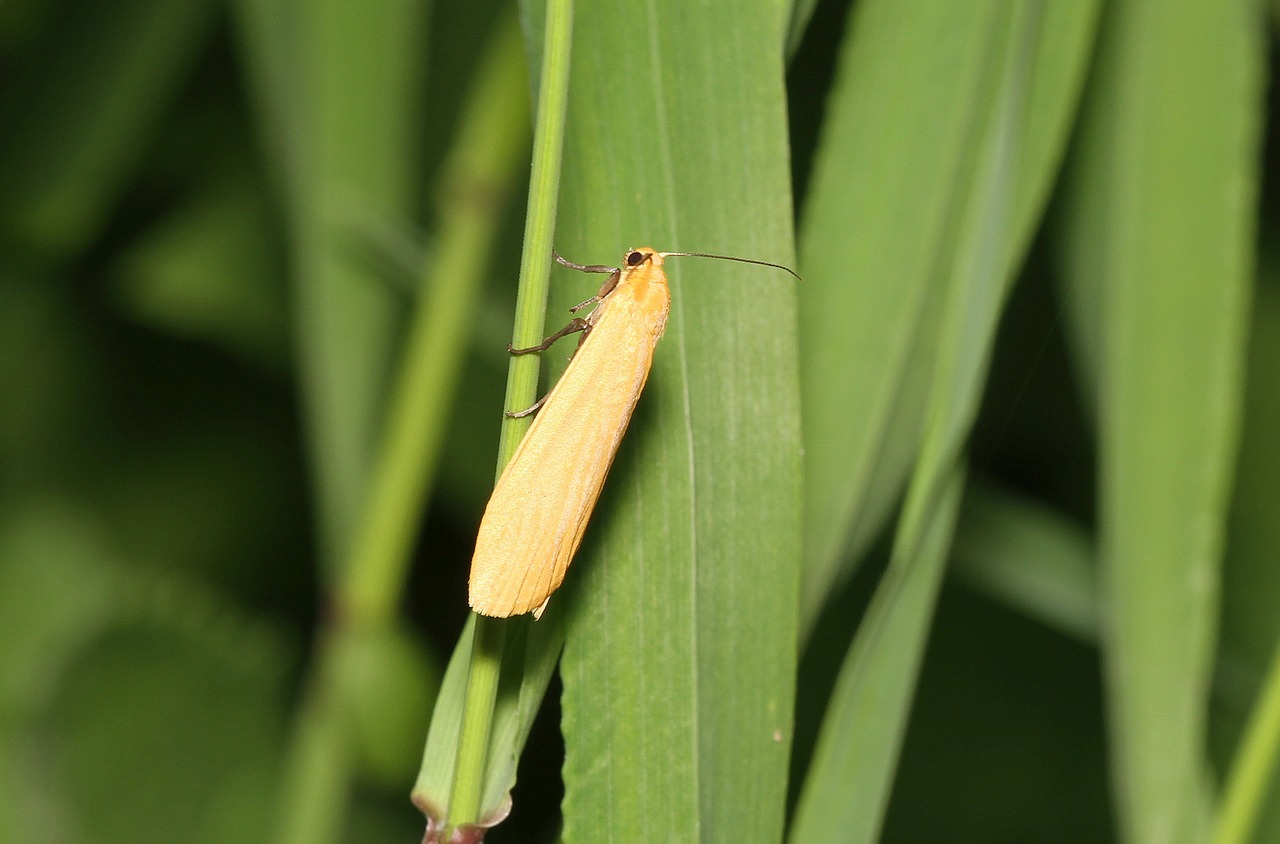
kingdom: Animalia
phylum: Arthropoda
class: Insecta
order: Lepidoptera
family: Erebidae
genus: Wittia
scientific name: Wittia sororcula
